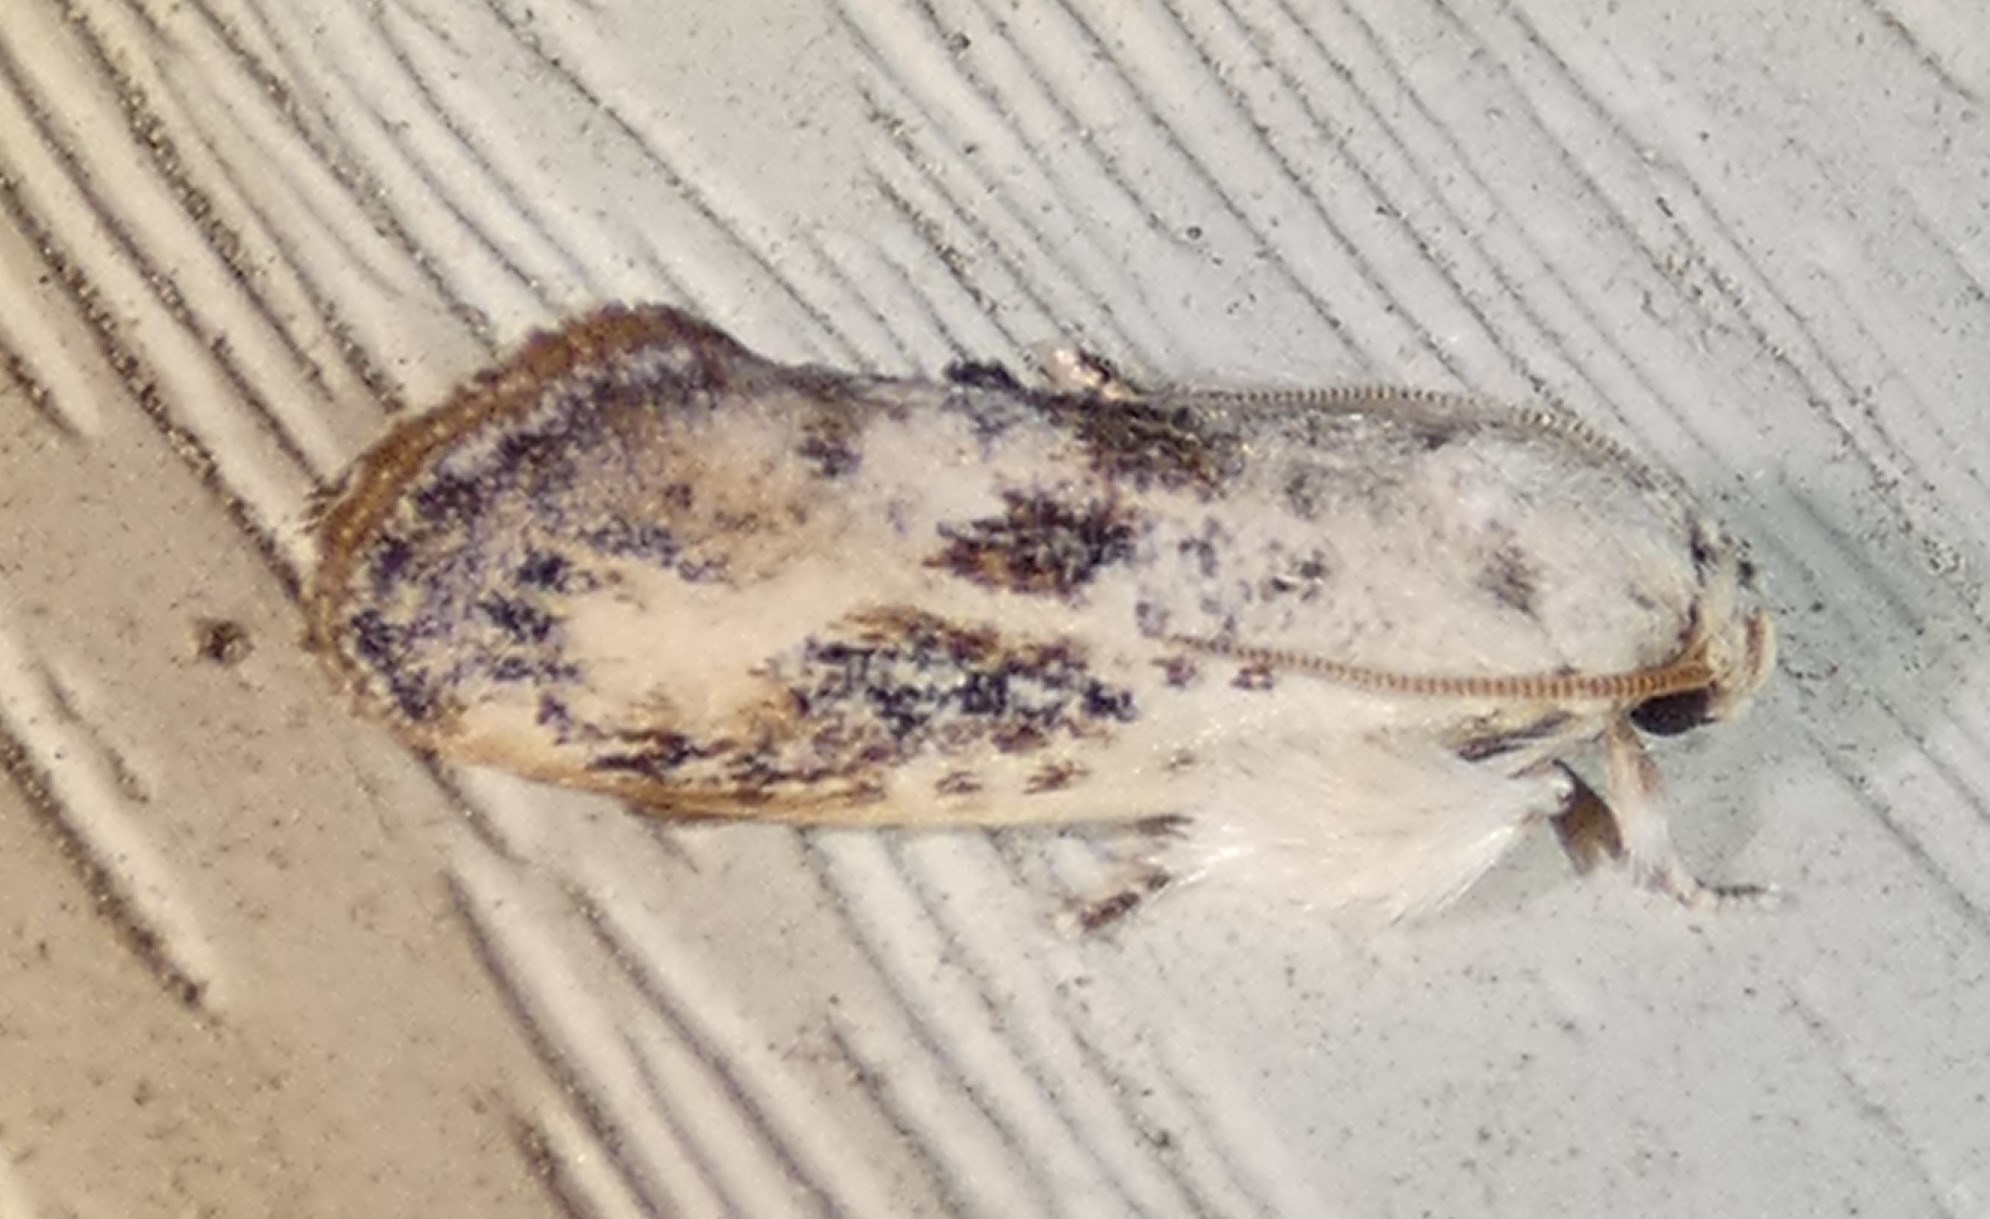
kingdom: Animalia
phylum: Arthropoda
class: Insecta
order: Lepidoptera
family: Tineidae
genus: Acrolophus
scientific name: Acrolophus mycetophagus
